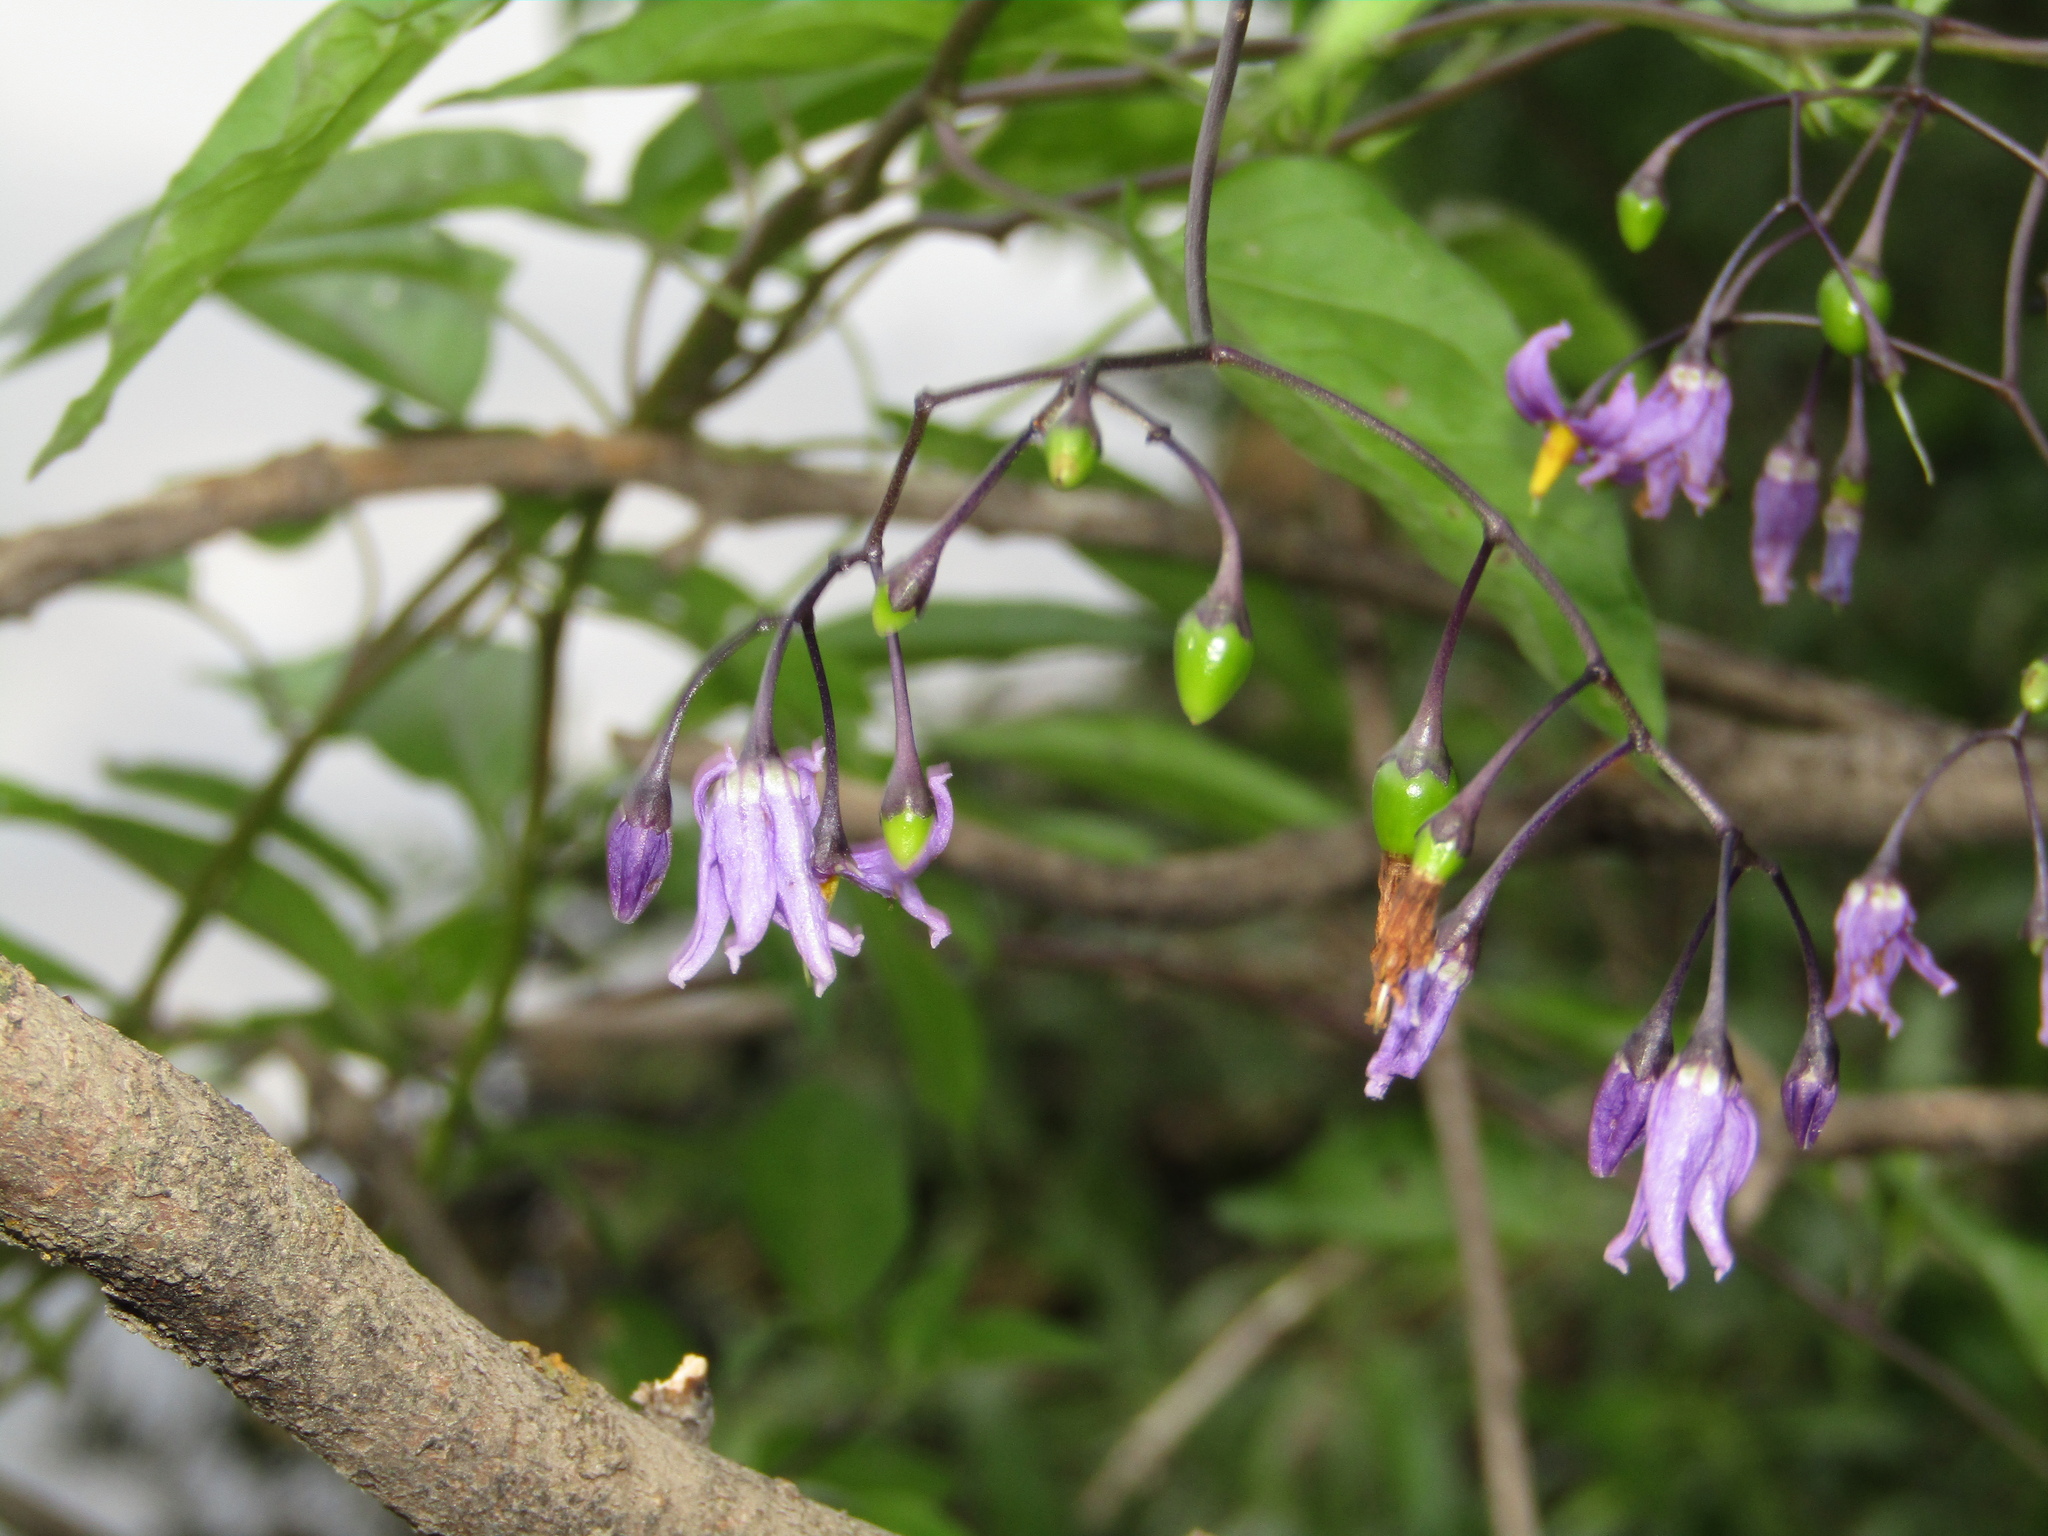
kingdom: Plantae
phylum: Tracheophyta
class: Magnoliopsida
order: Solanales
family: Solanaceae
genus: Solanum
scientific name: Solanum dulcamara
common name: Climbing nightshade
